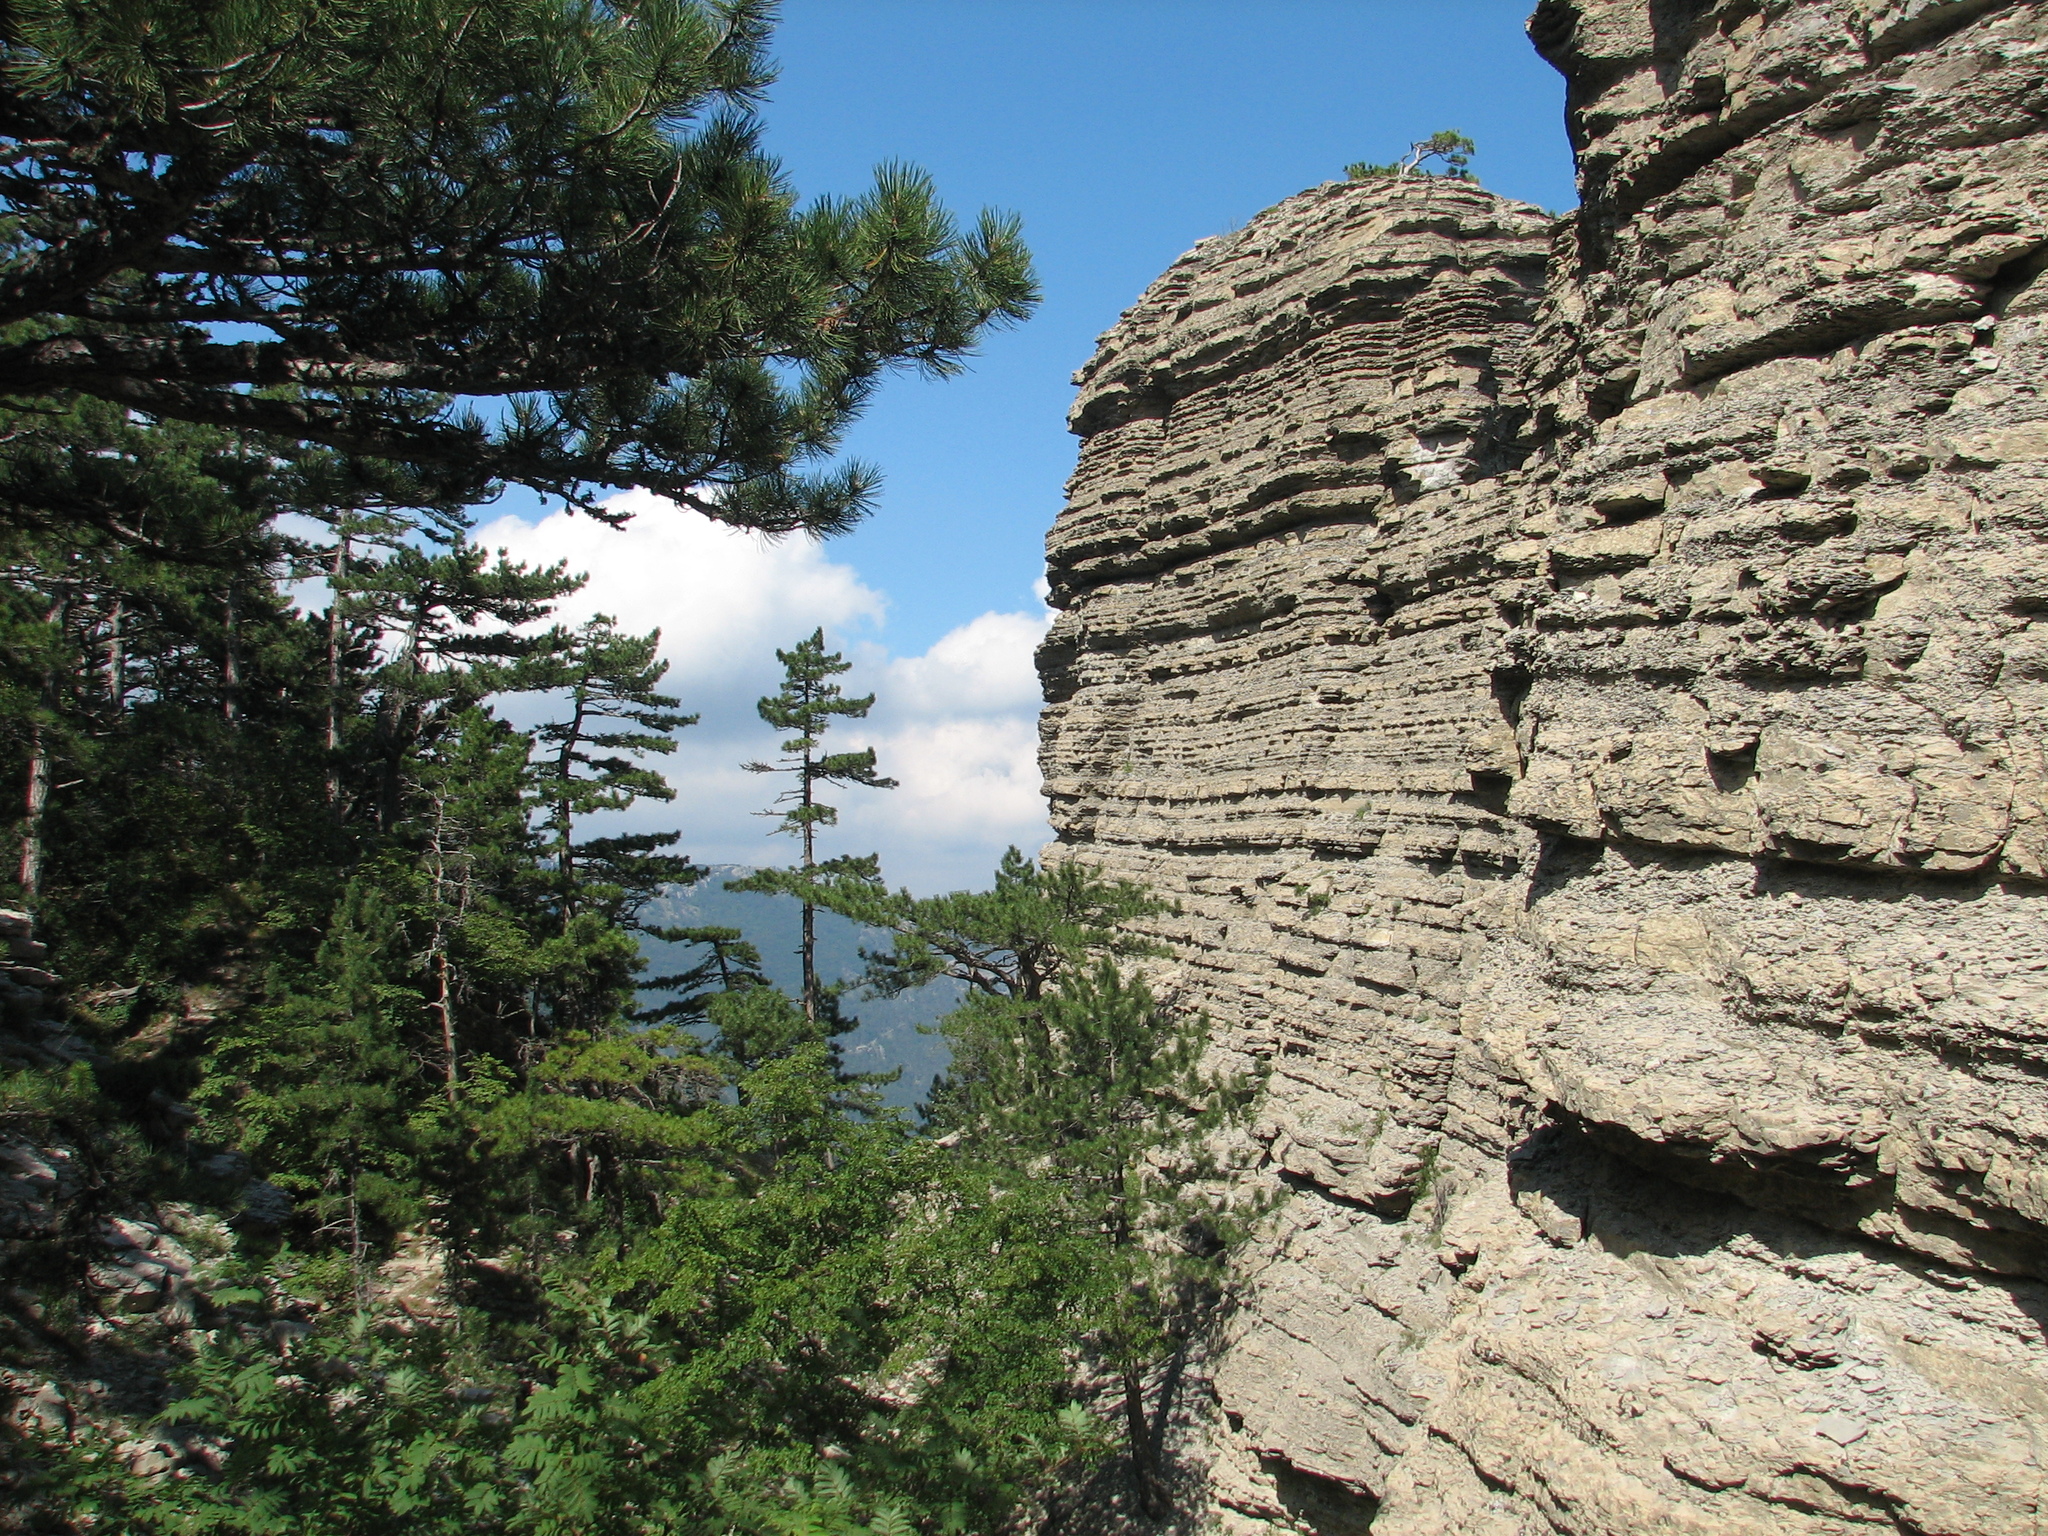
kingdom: Plantae
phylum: Tracheophyta
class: Pinopsida
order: Pinales
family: Pinaceae
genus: Pinus
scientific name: Pinus nigra
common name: Austrian pine
